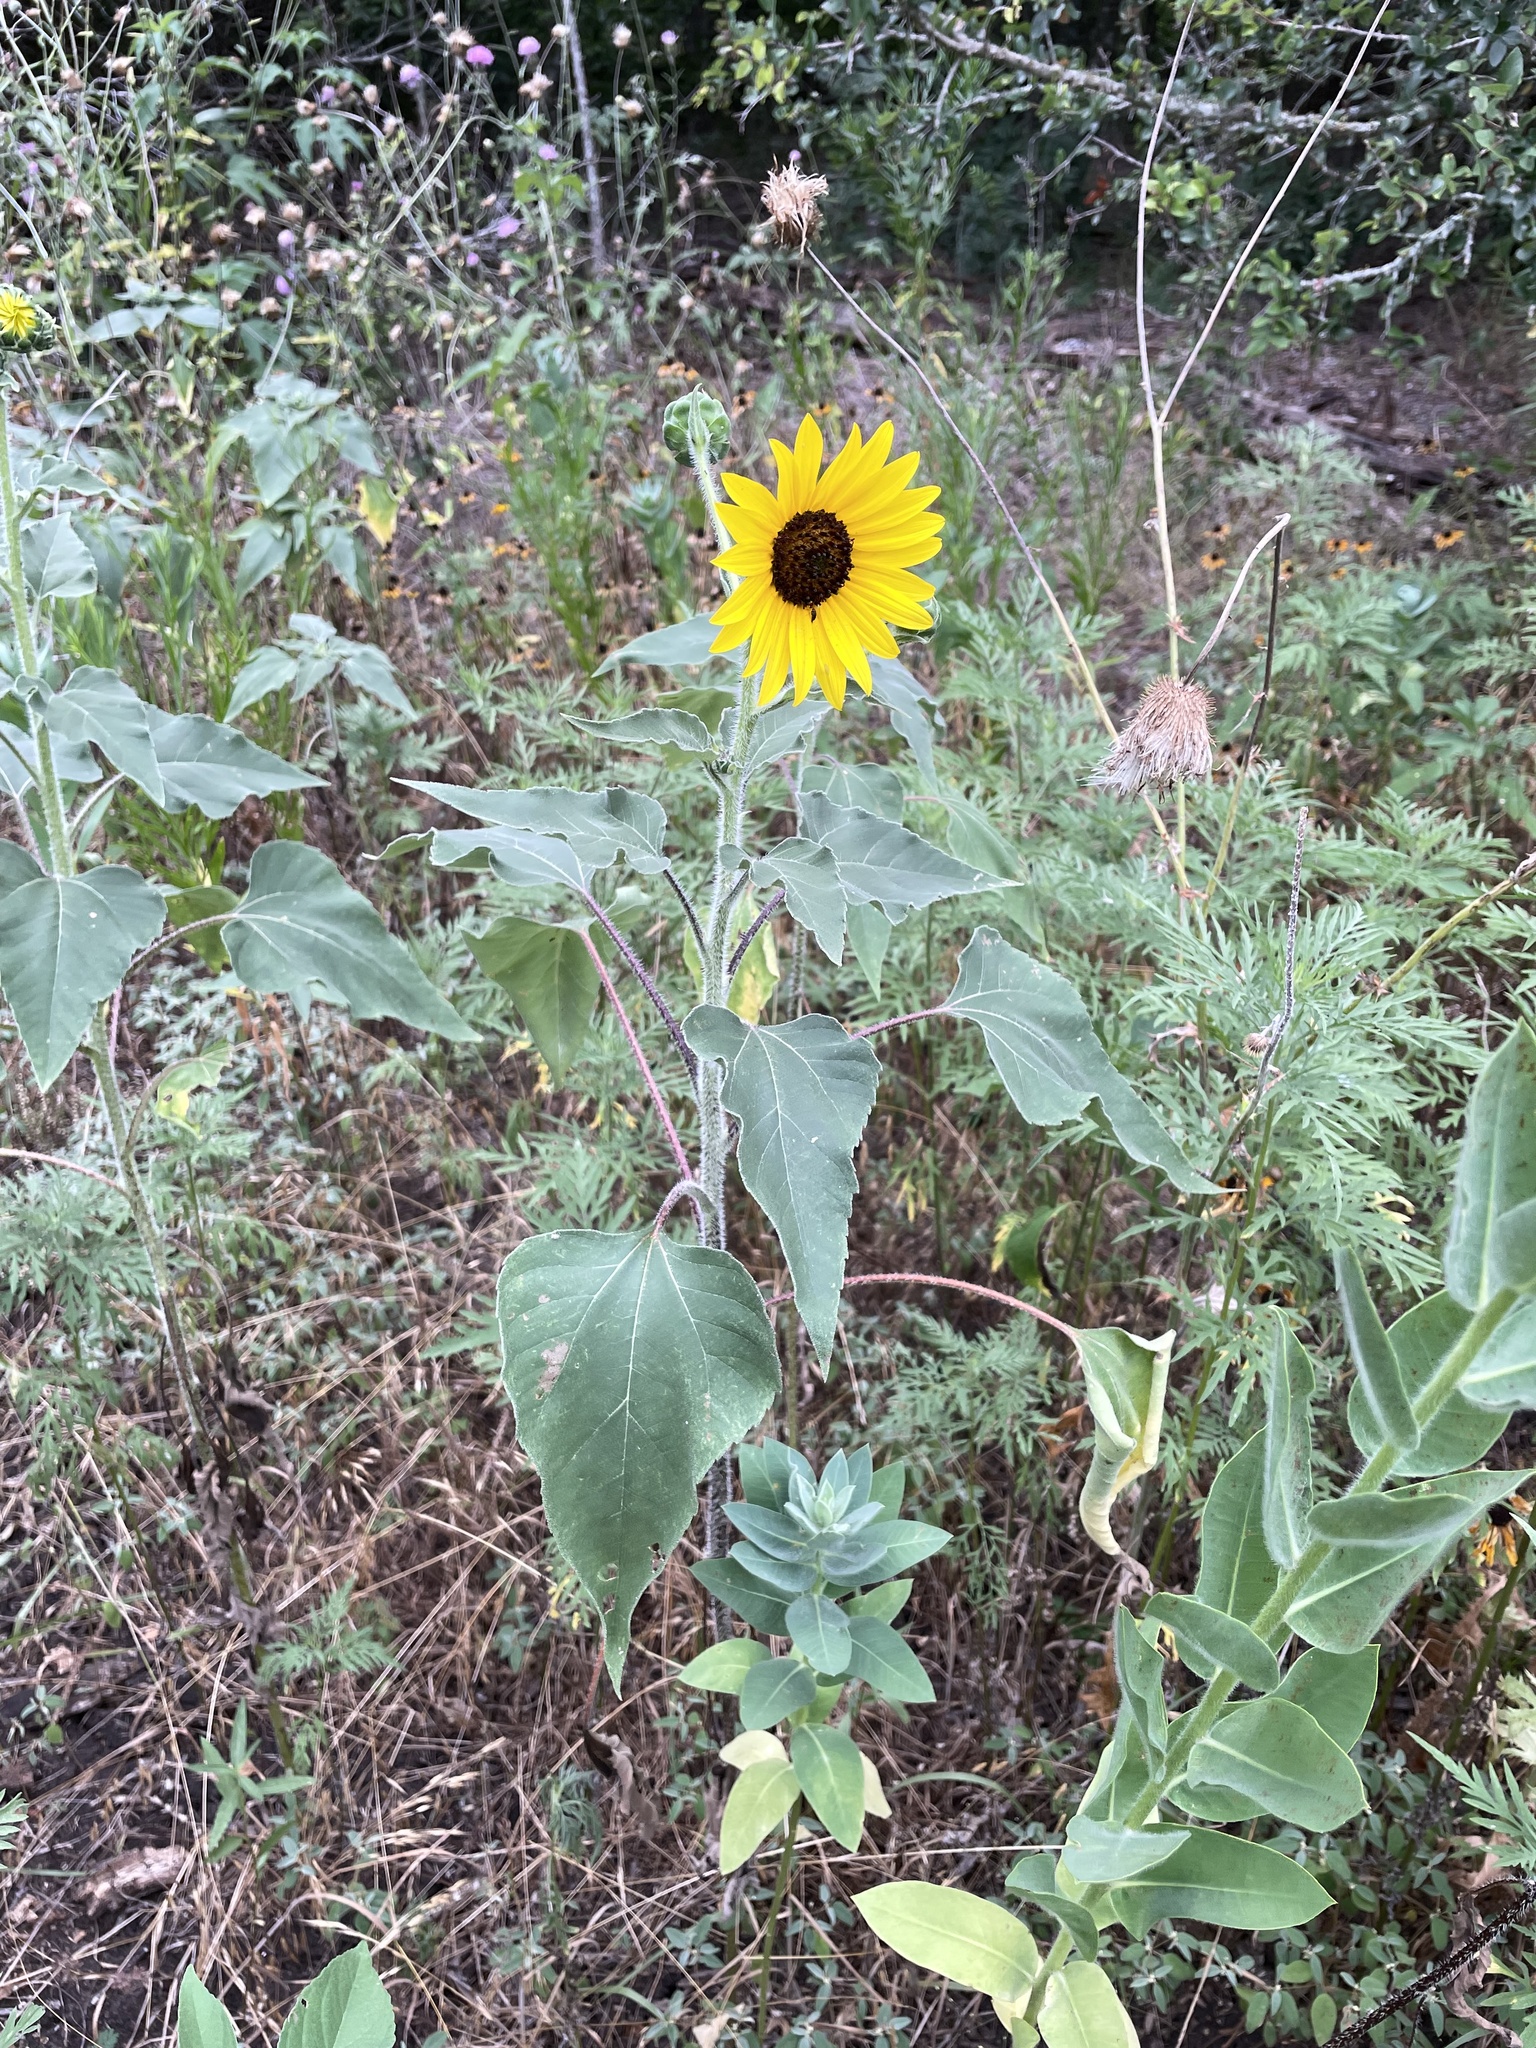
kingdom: Plantae
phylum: Tracheophyta
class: Magnoliopsida
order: Asterales
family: Asteraceae
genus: Helianthus
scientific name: Helianthus annuus
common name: Sunflower
